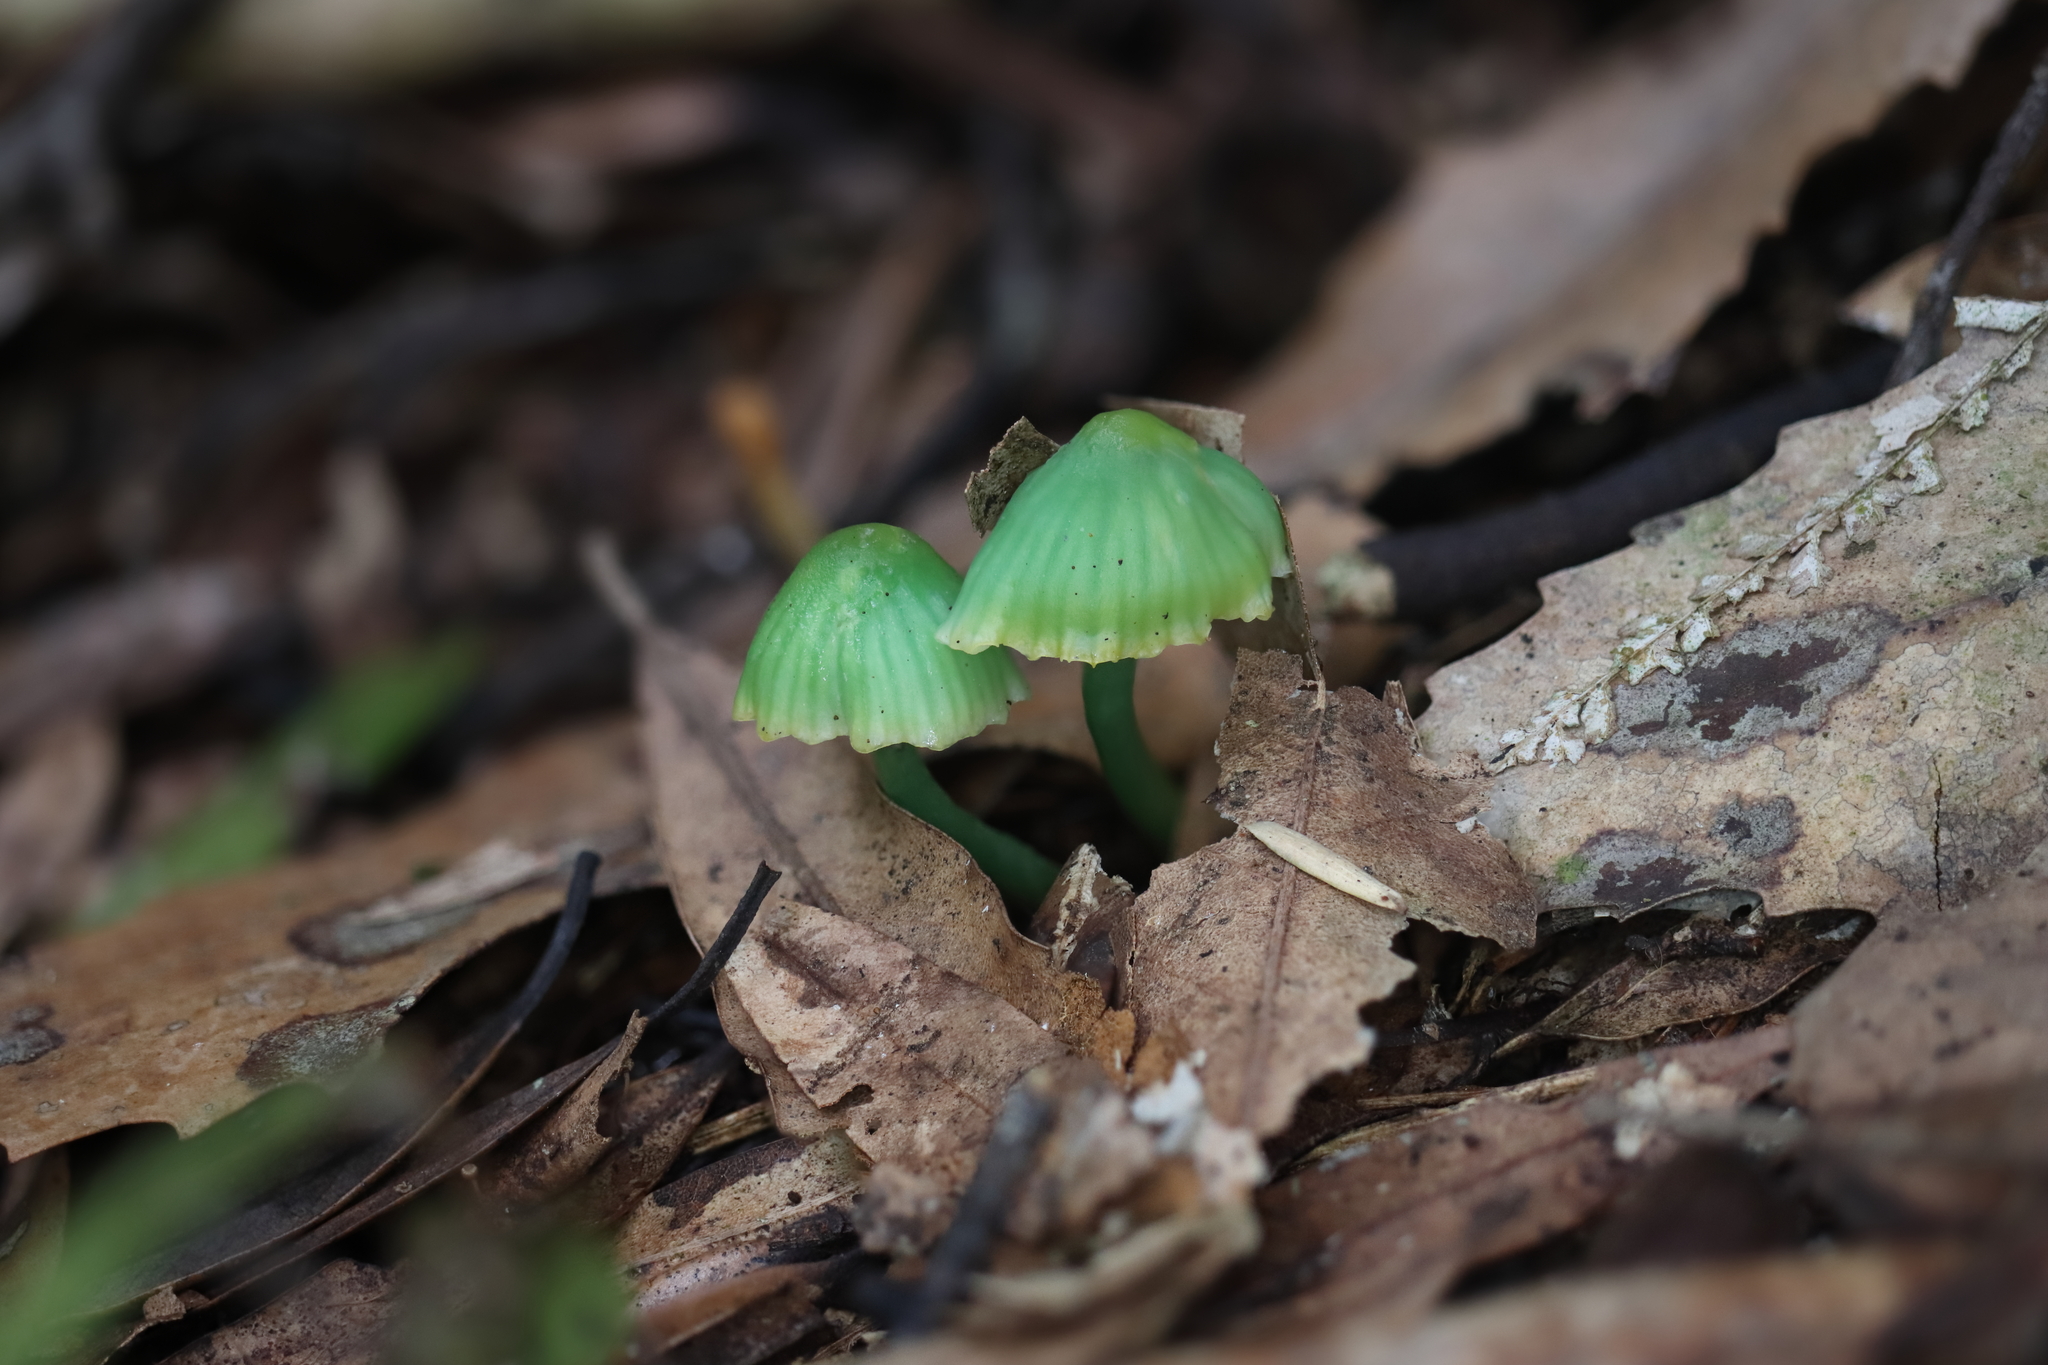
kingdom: Fungi
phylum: Basidiomycota
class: Agaricomycetes
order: Agaricales
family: Hygrophoraceae
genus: Gliophorus
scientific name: Gliophorus viridis
